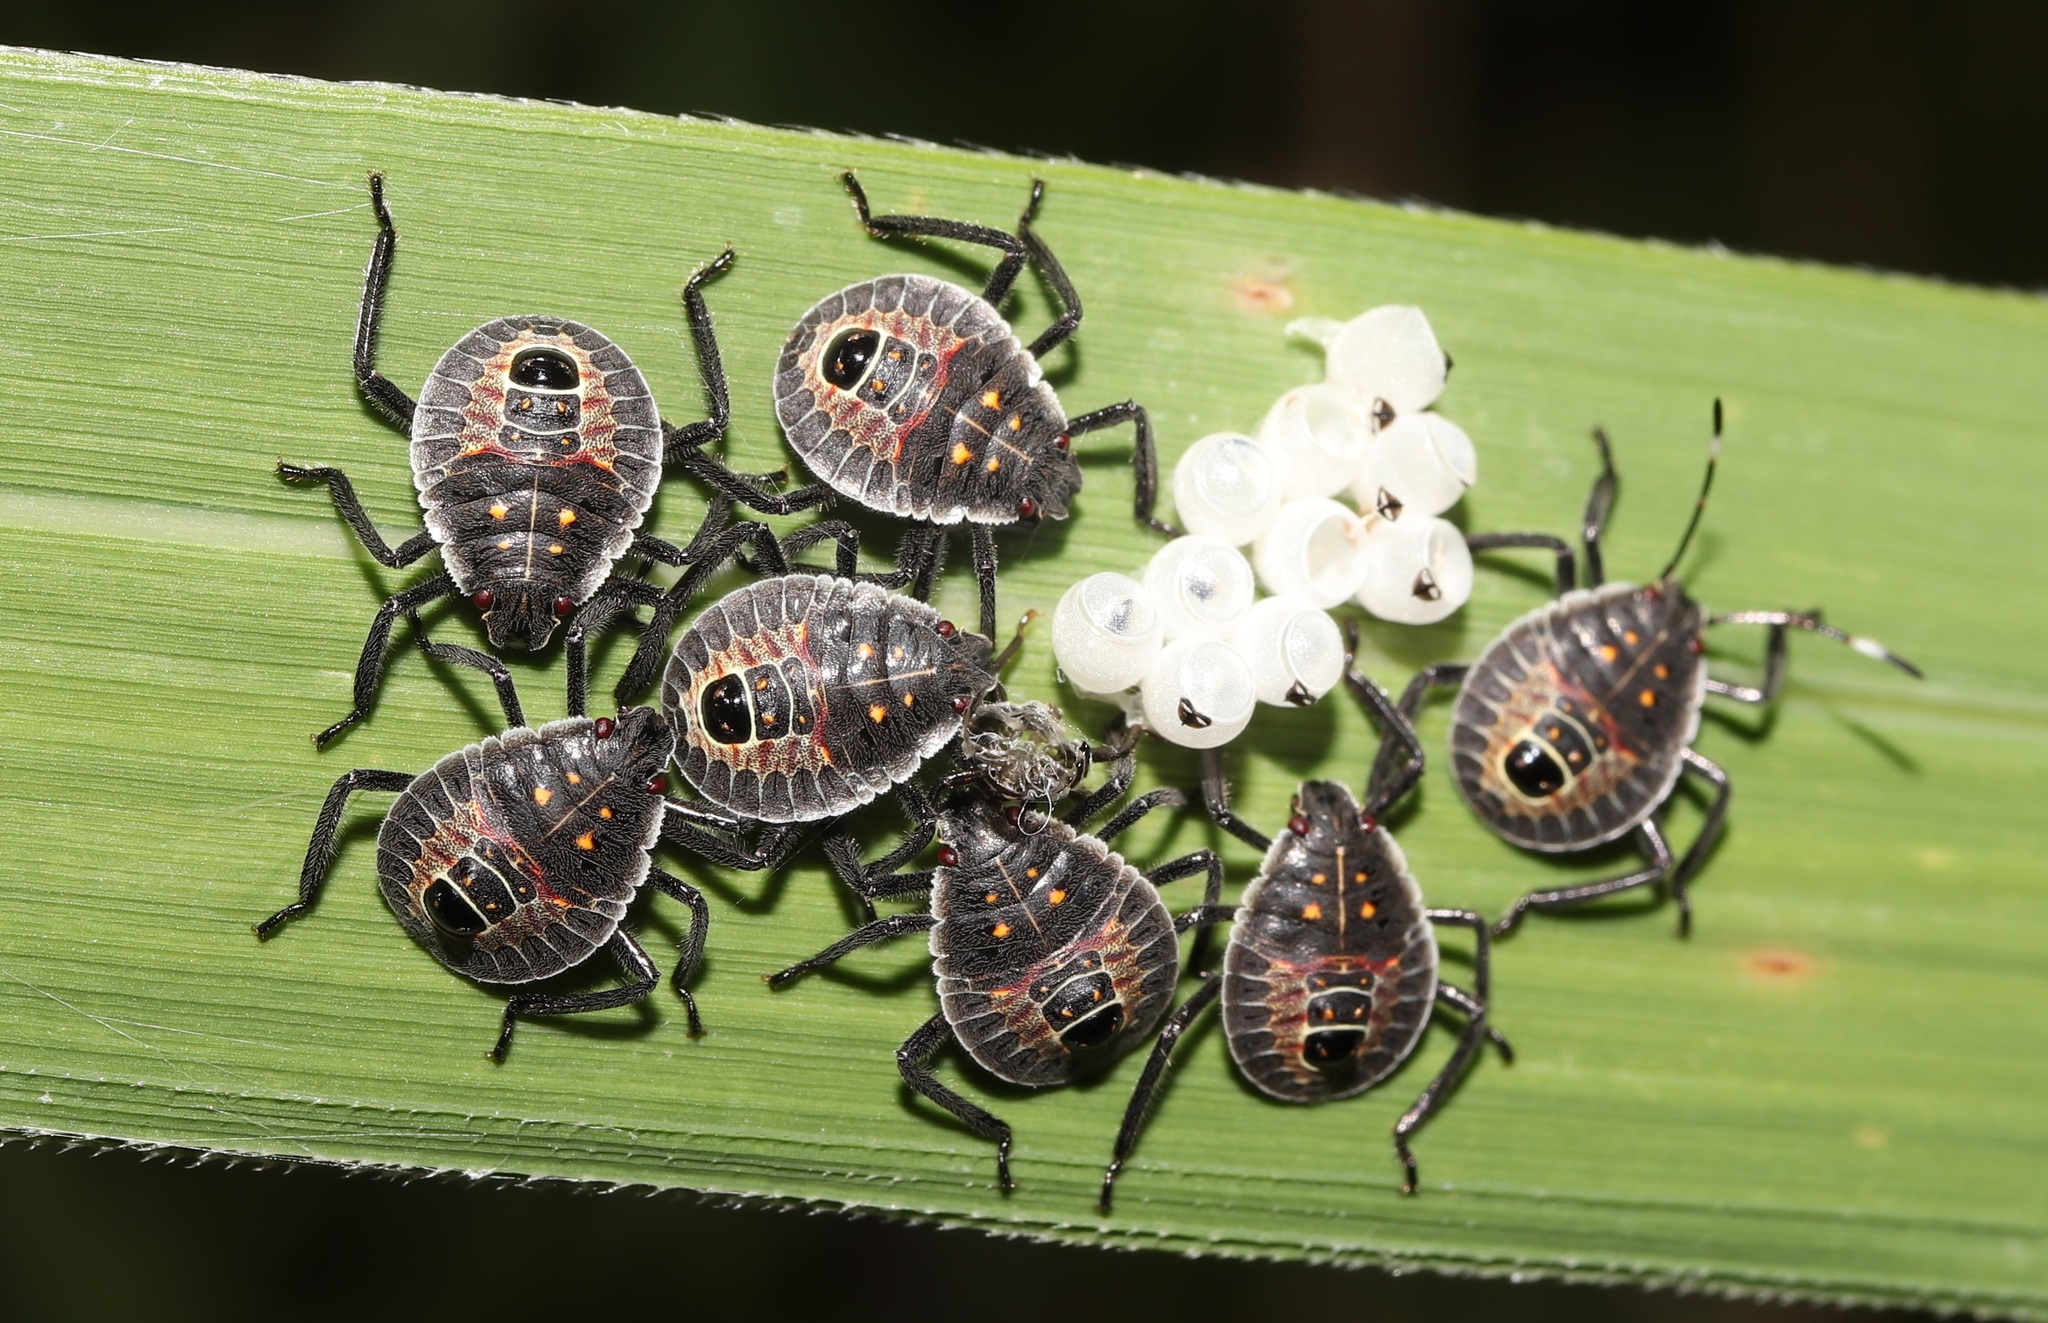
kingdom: Animalia
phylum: Arthropoda
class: Insecta
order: Hemiptera
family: Pentatomidae
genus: Erthesina
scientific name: Erthesina fullo
